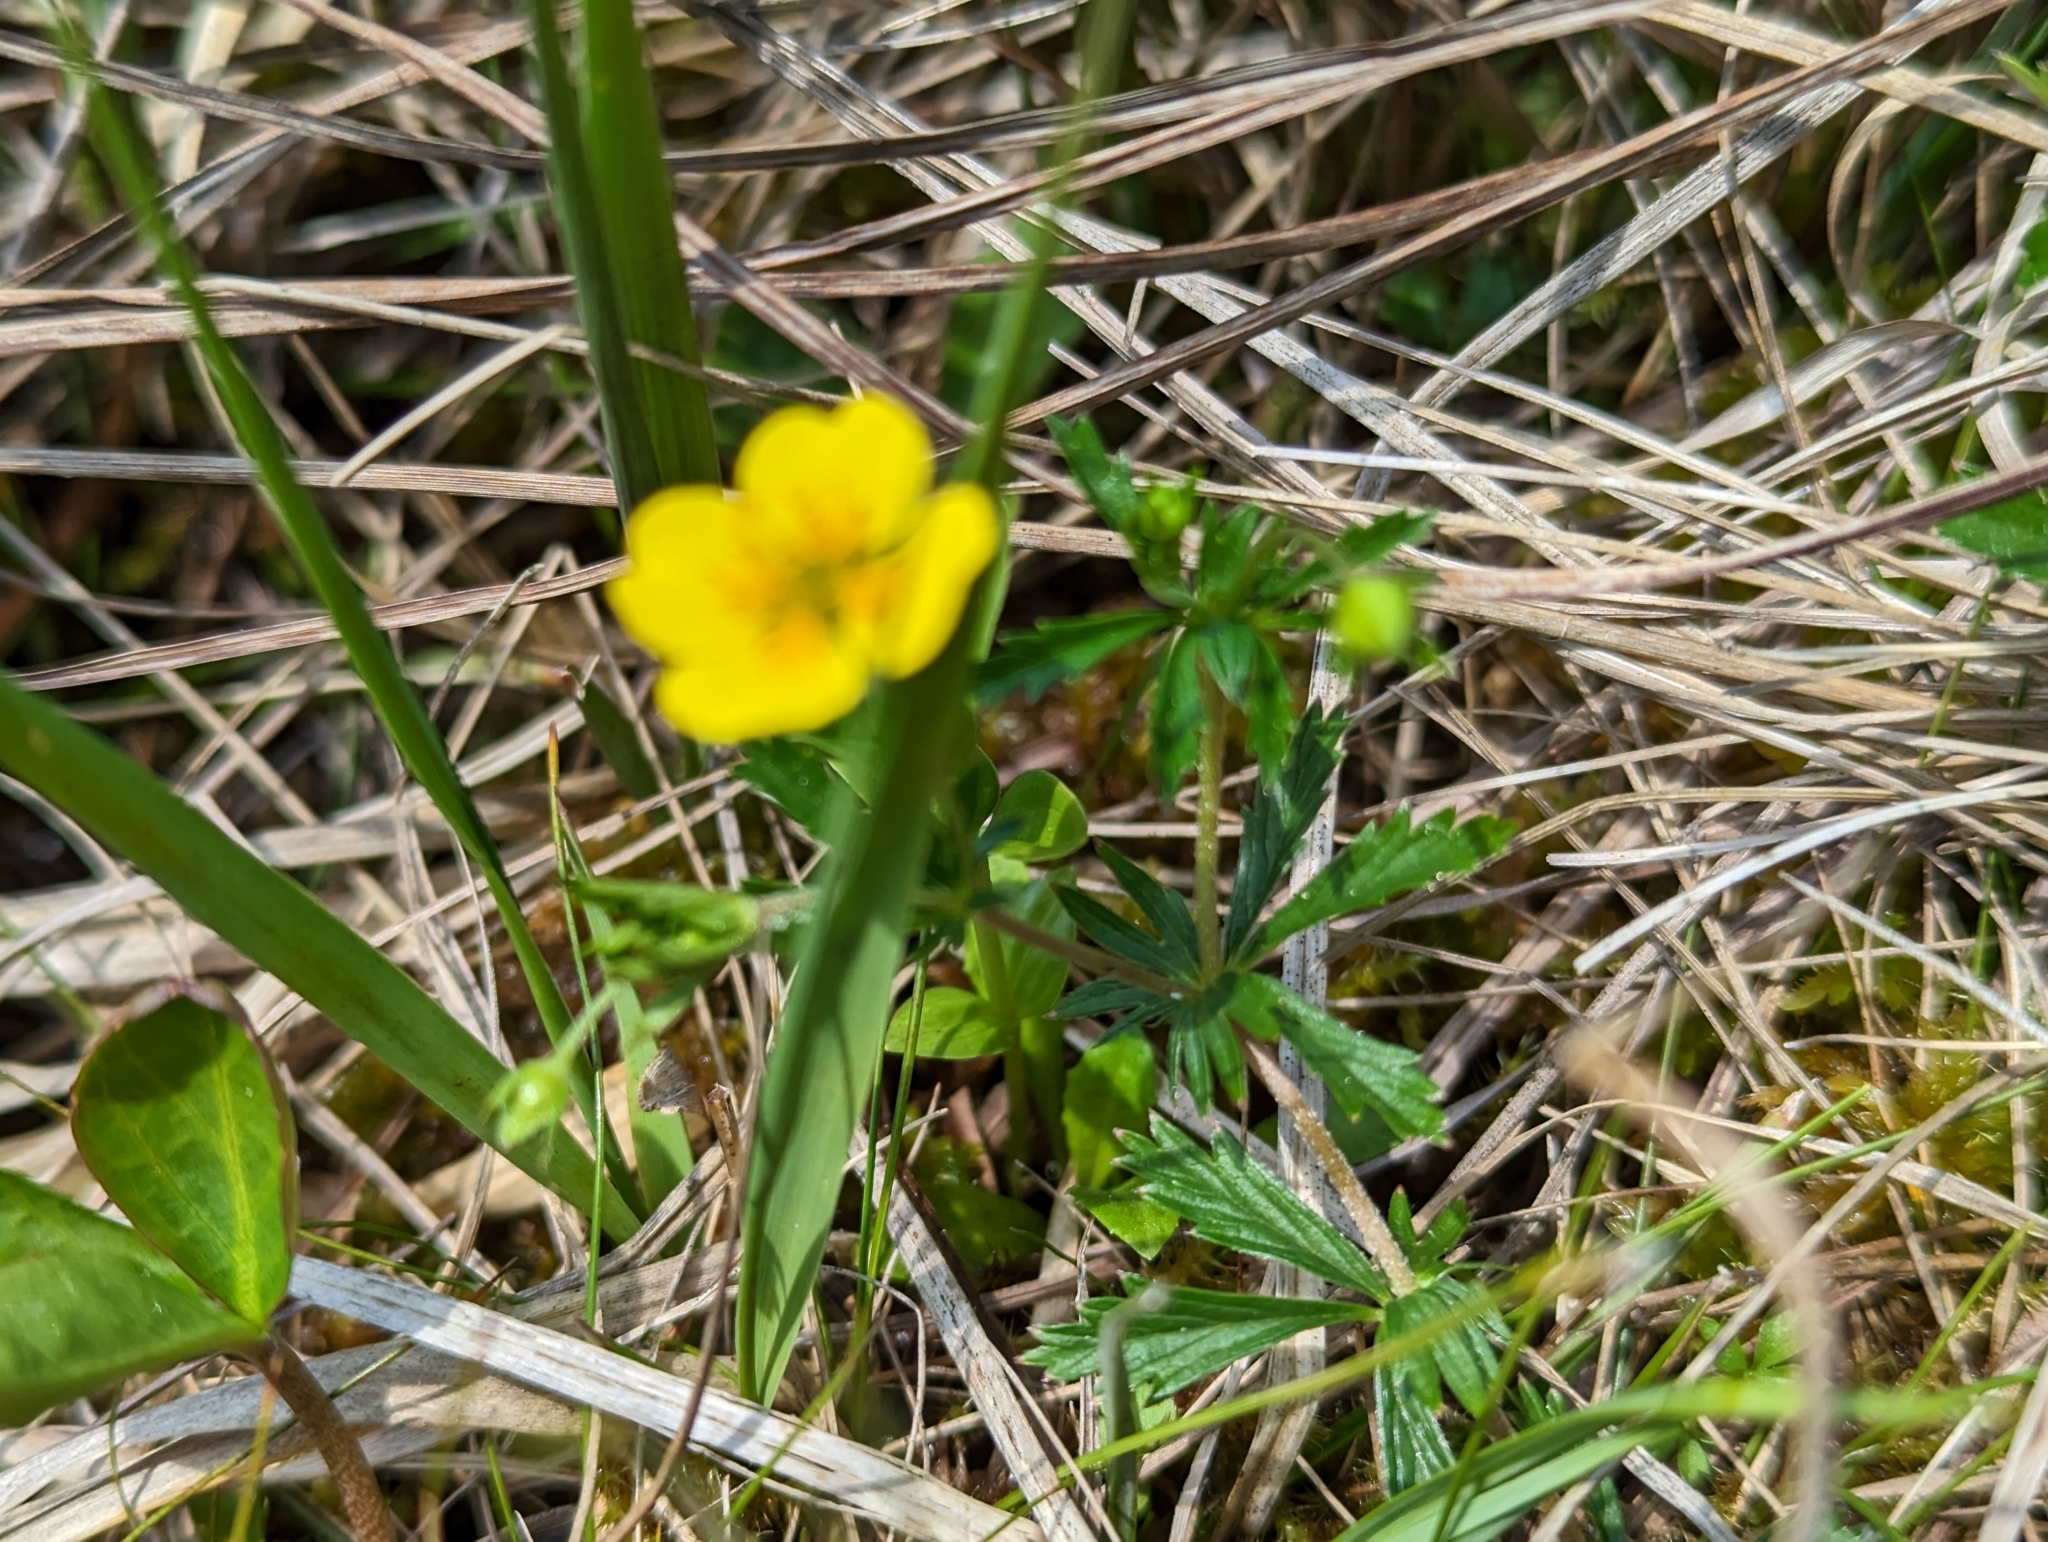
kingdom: Plantae
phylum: Tracheophyta
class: Magnoliopsida
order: Rosales
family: Rosaceae
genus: Potentilla
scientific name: Potentilla erecta
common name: Tormentil
